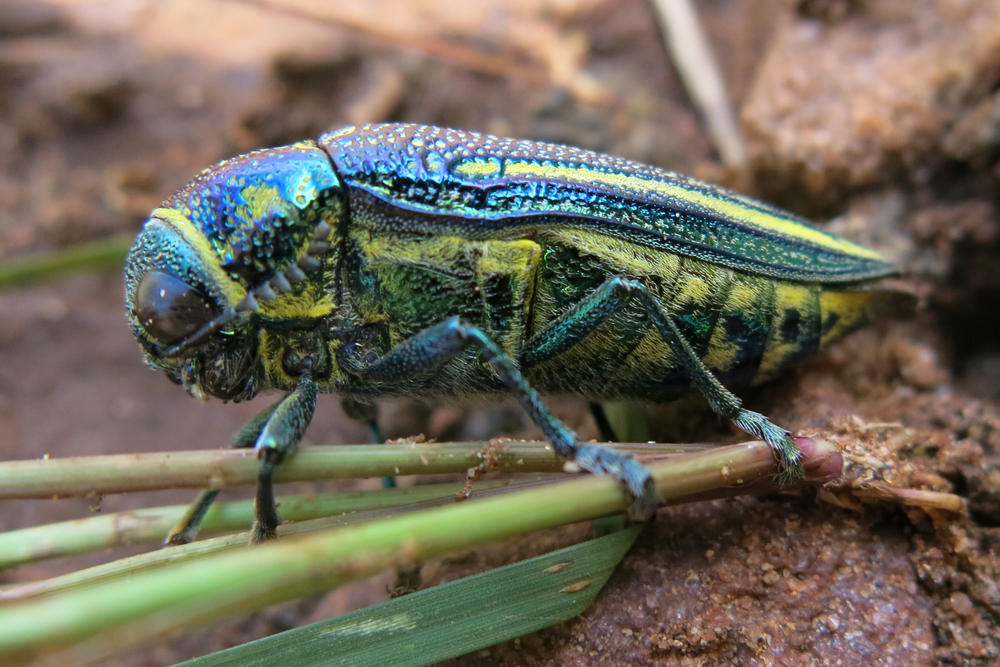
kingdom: Animalia
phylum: Arthropoda
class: Insecta
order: Coleoptera
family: Buprestidae
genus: Amblysterna
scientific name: Amblysterna natalensis
